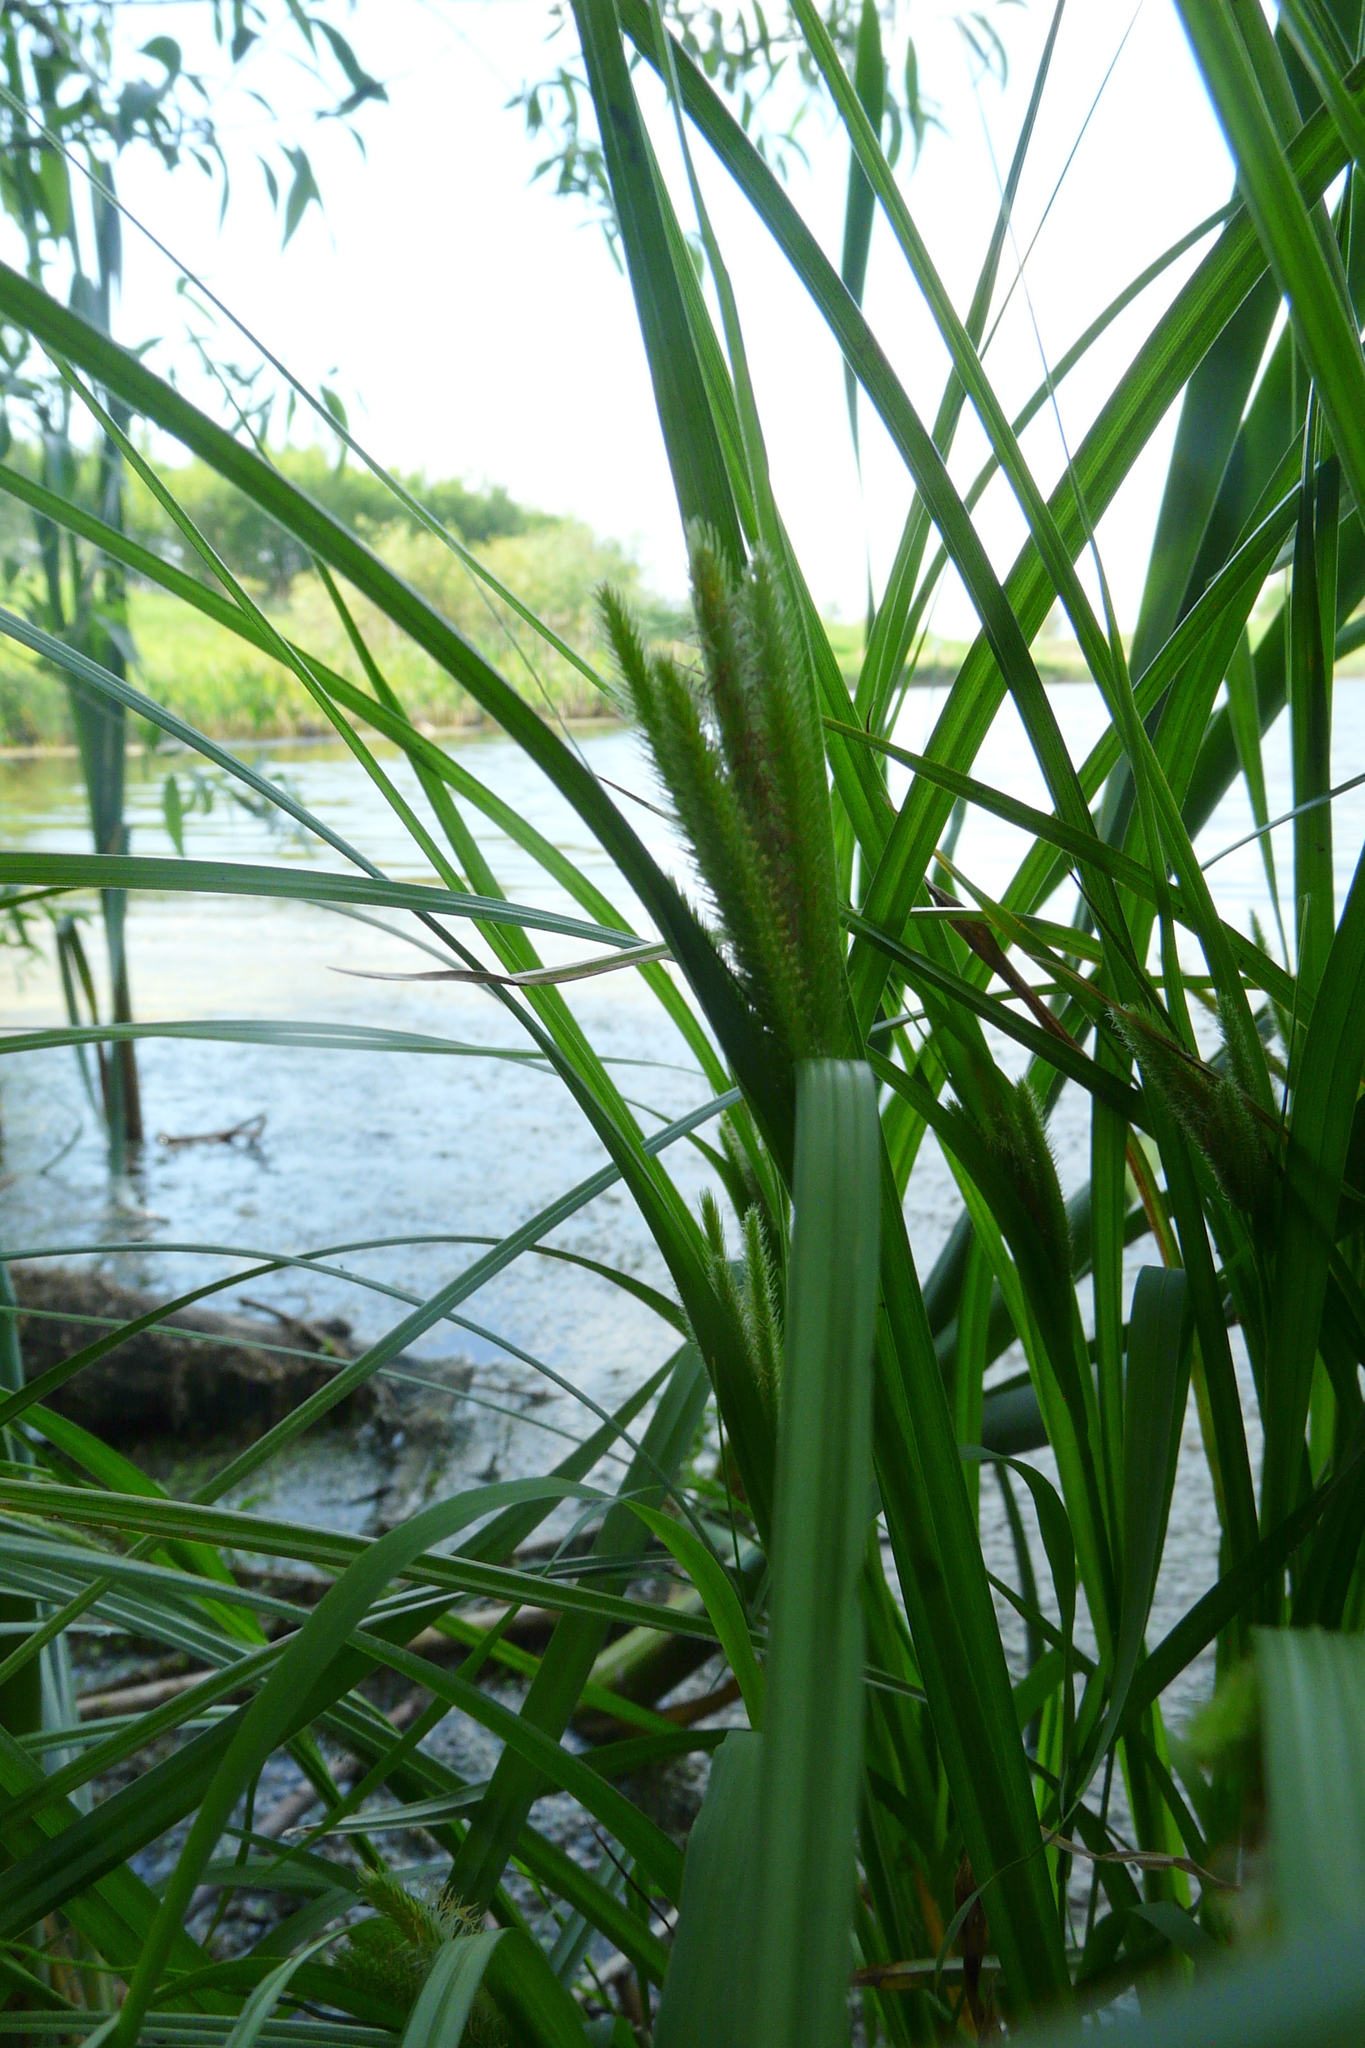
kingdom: Plantae
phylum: Tracheophyta
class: Liliopsida
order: Poales
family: Cyperaceae
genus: Carex
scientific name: Carex pseudocyperus
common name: Cyperus sedge
